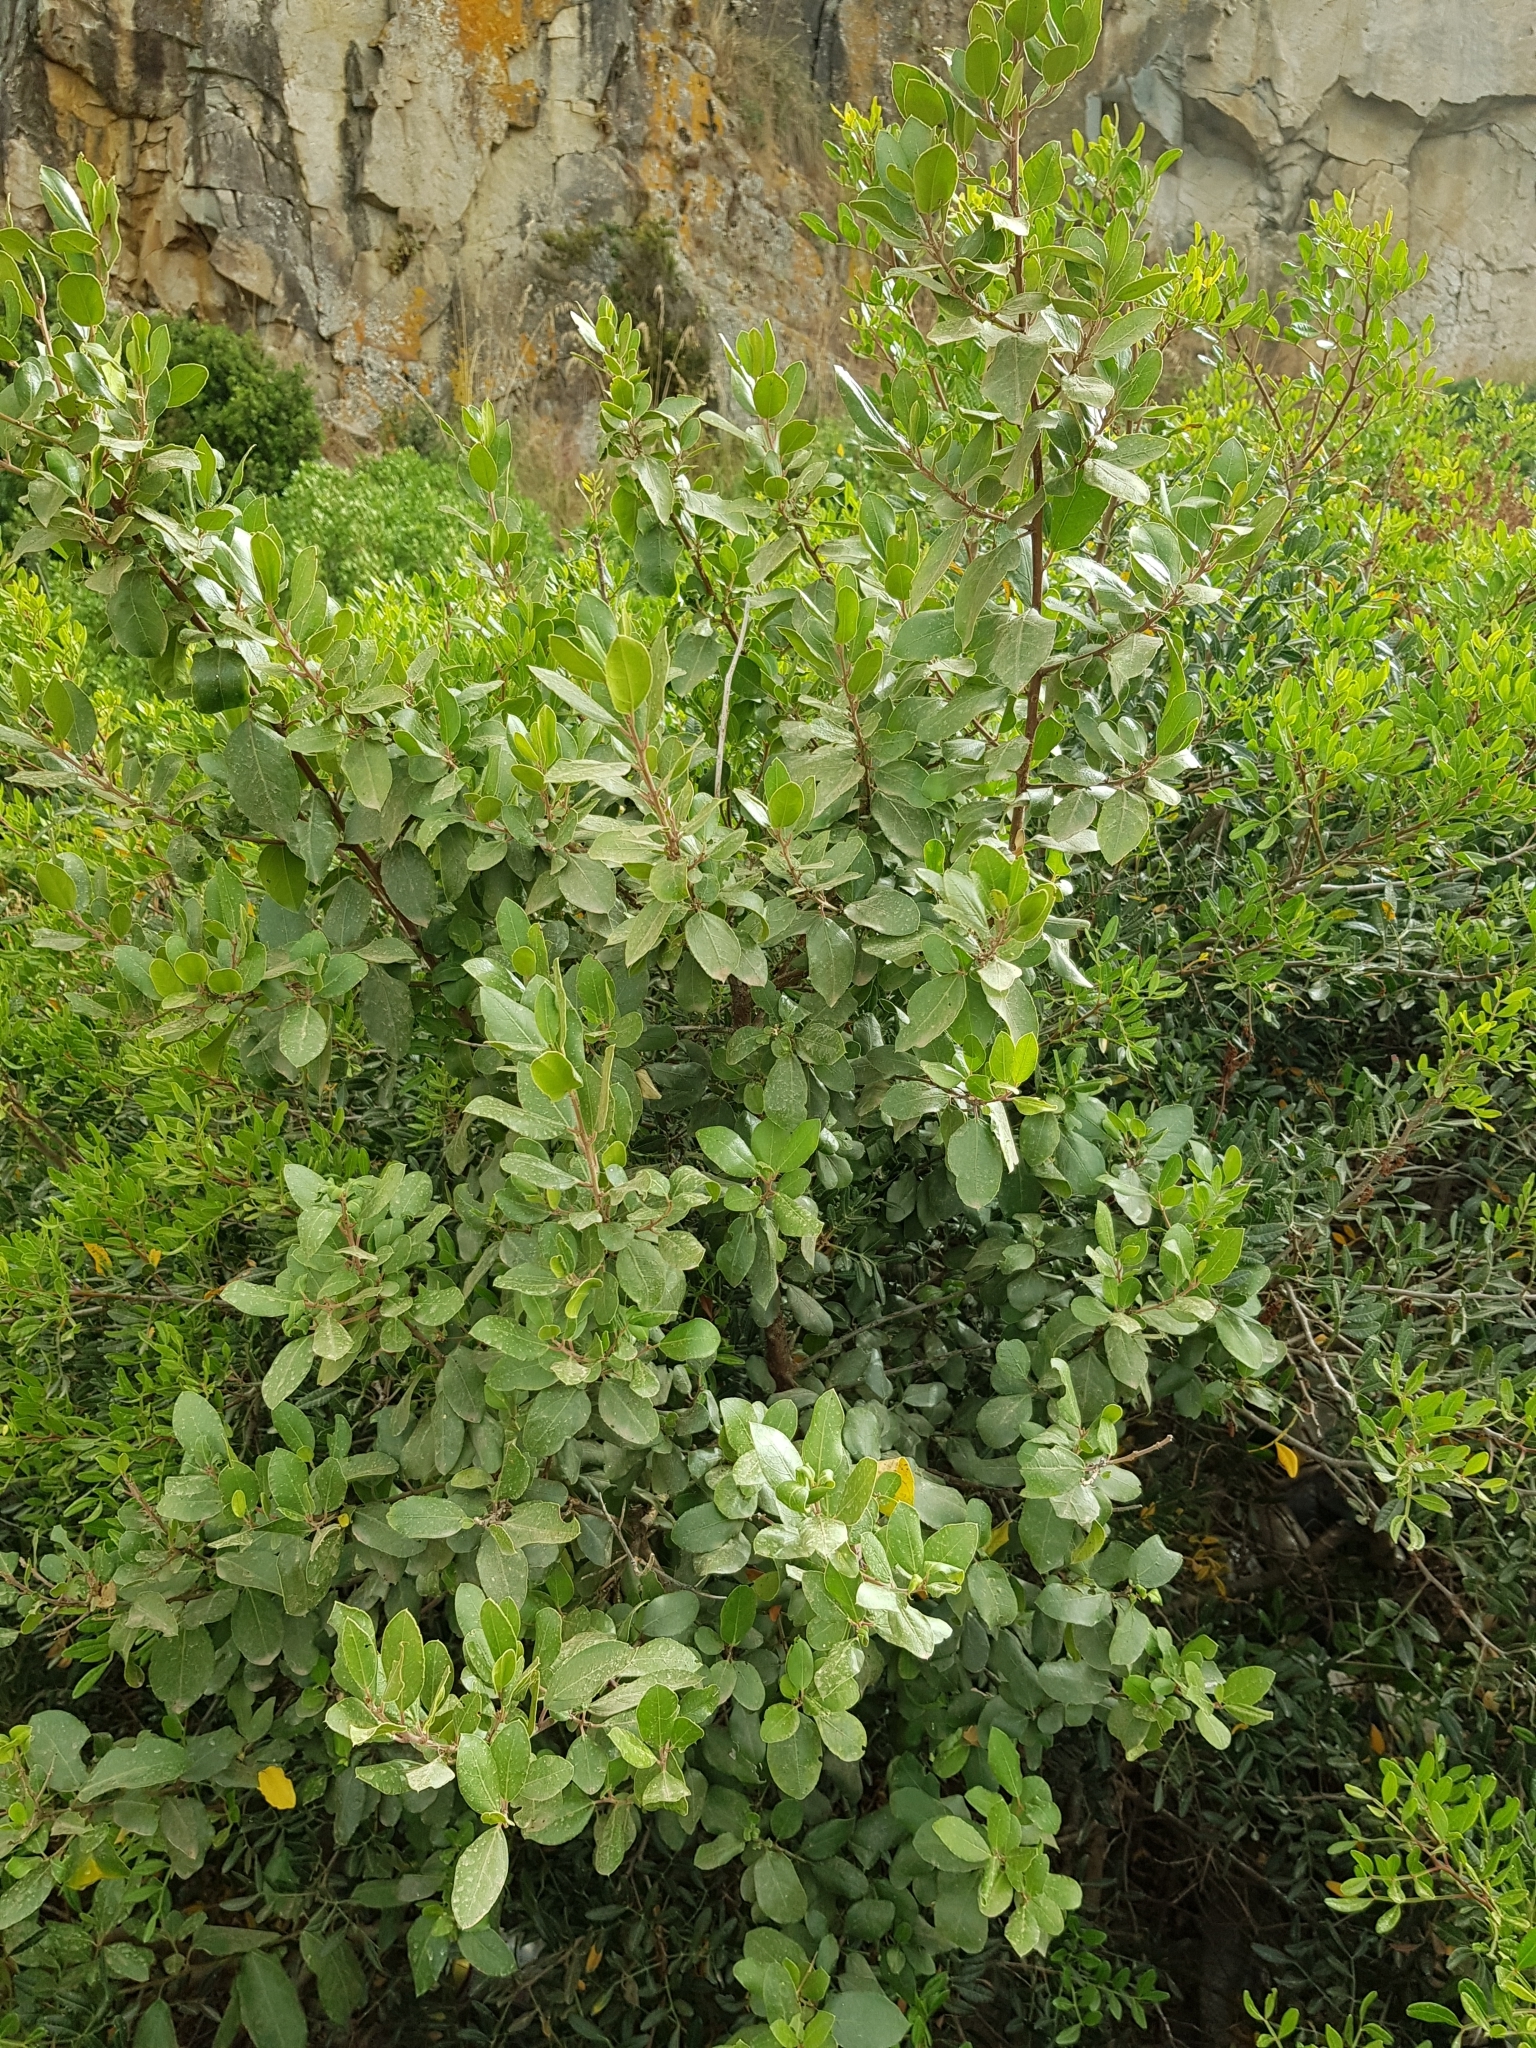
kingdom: Plantae
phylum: Tracheophyta
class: Magnoliopsida
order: Rosales
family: Rhamnaceae
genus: Rhamnus
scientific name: Rhamnus alaternus
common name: Mediterranean buckthorn
